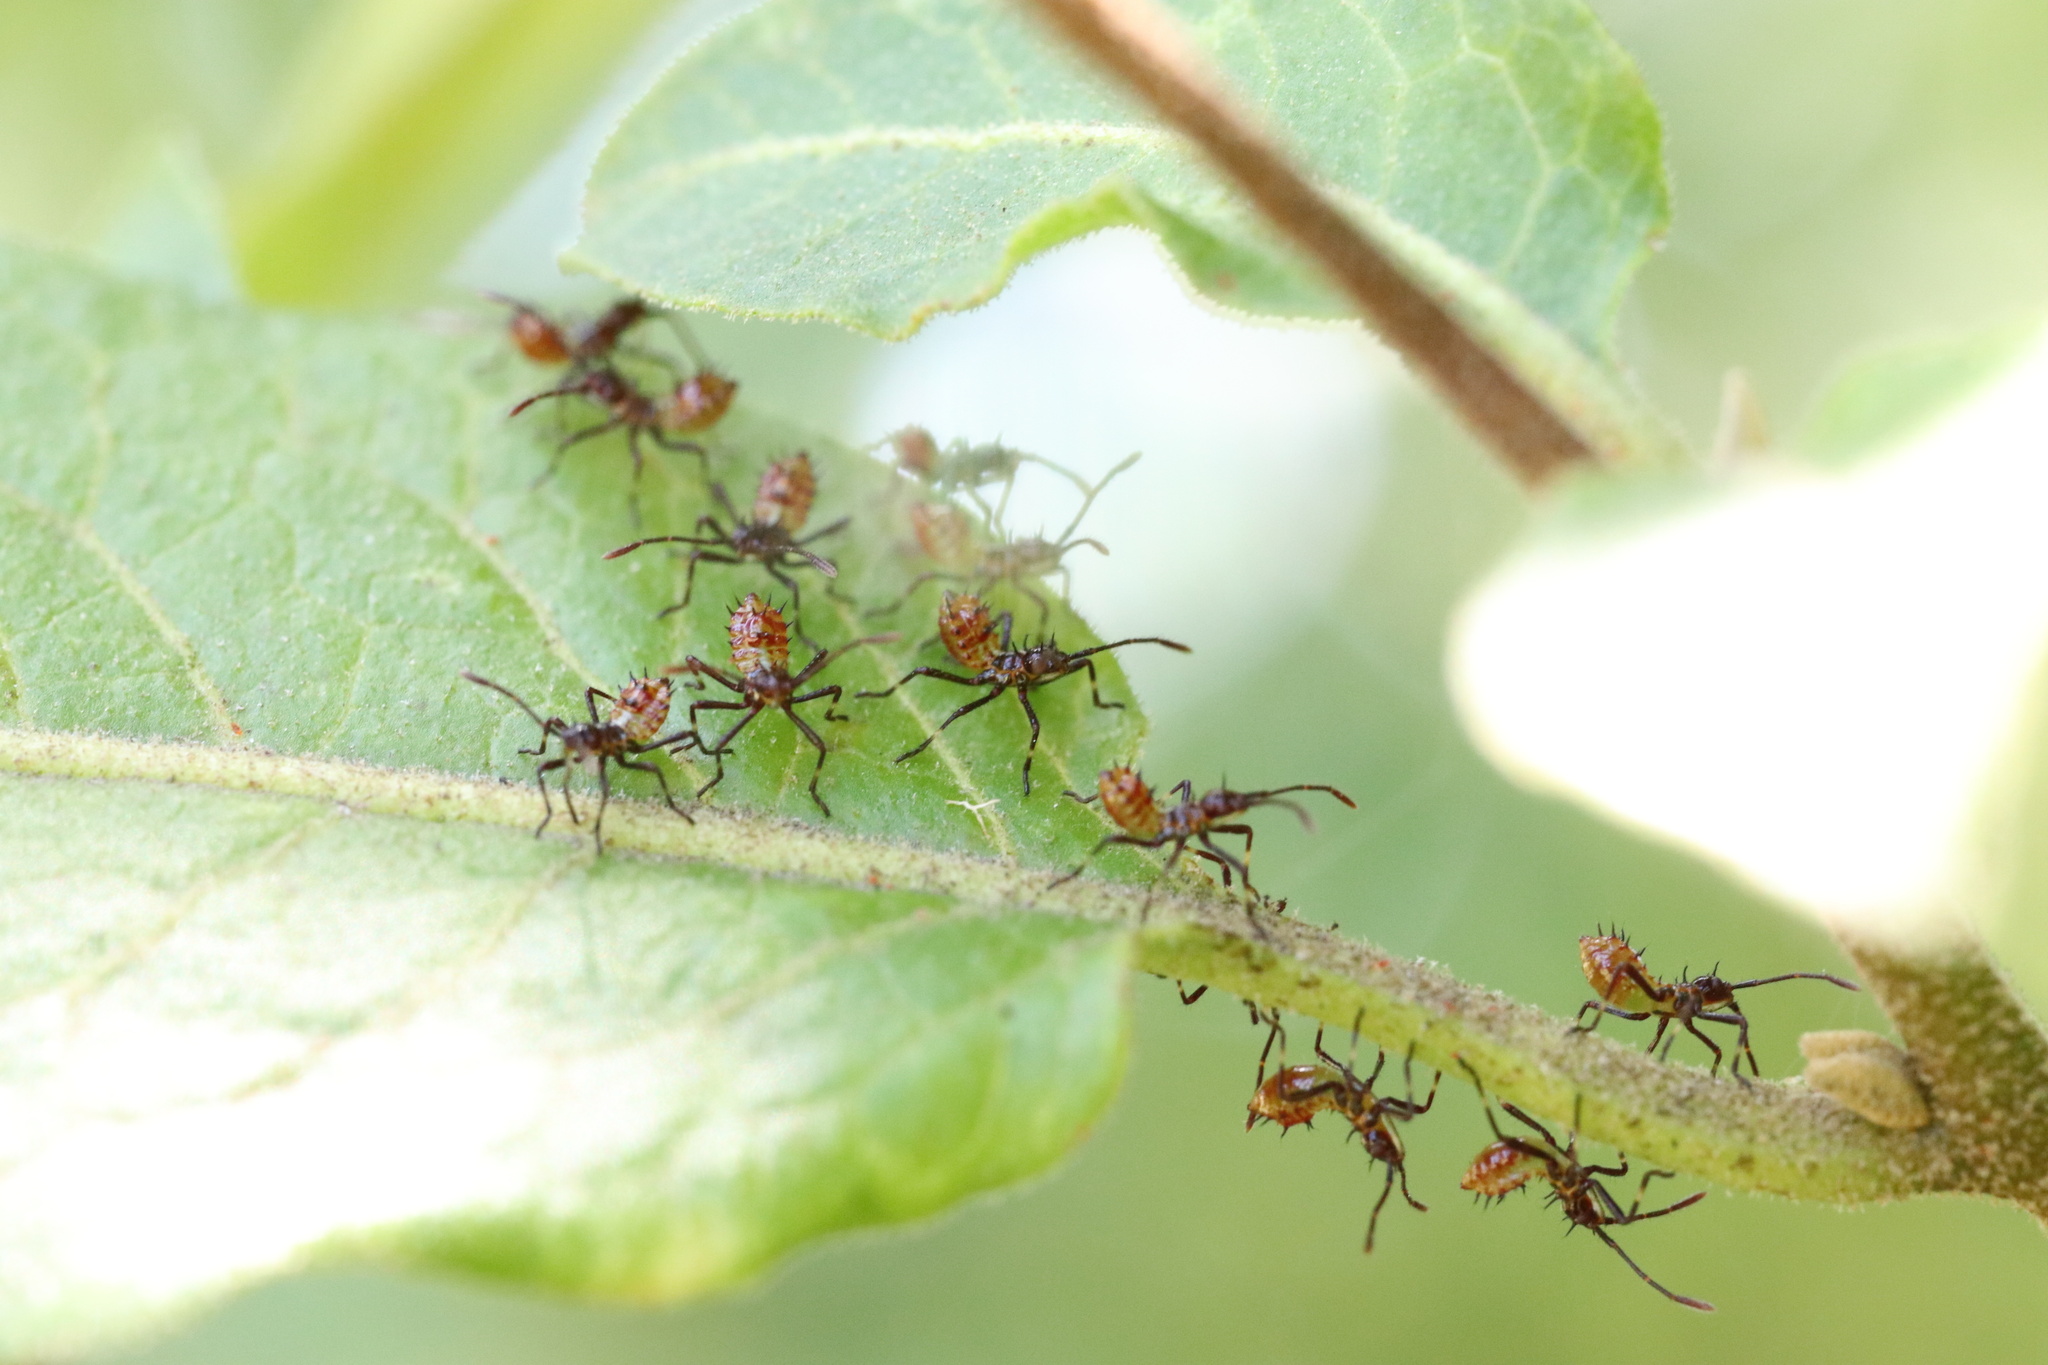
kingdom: Animalia
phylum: Arthropoda
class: Insecta
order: Hemiptera
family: Coreidae
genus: Leptoglossus
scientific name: Leptoglossus chilensis
